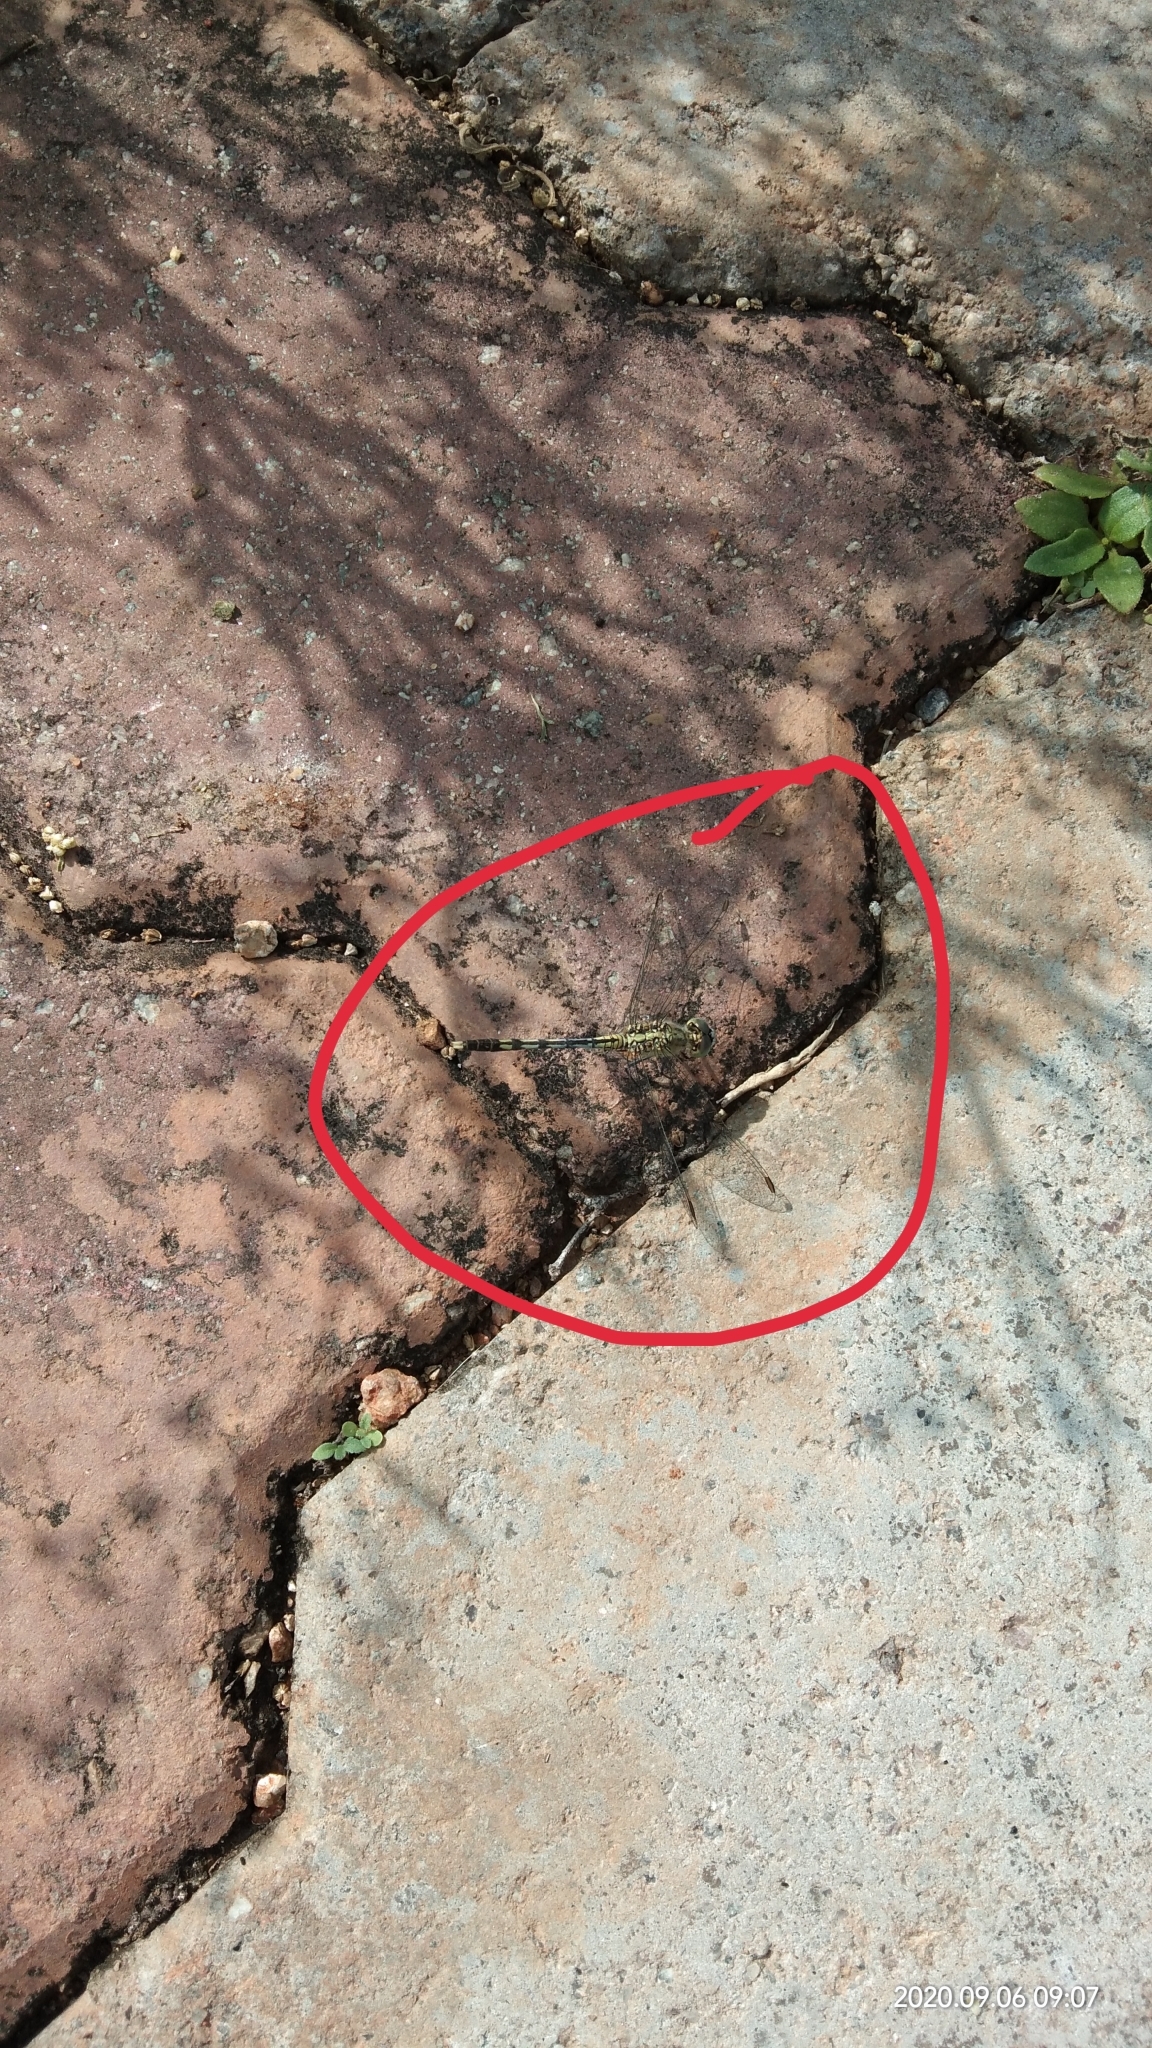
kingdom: Animalia
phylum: Arthropoda
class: Insecta
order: Odonata
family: Libellulidae
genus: Diplacodes
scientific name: Diplacodes trivialis
